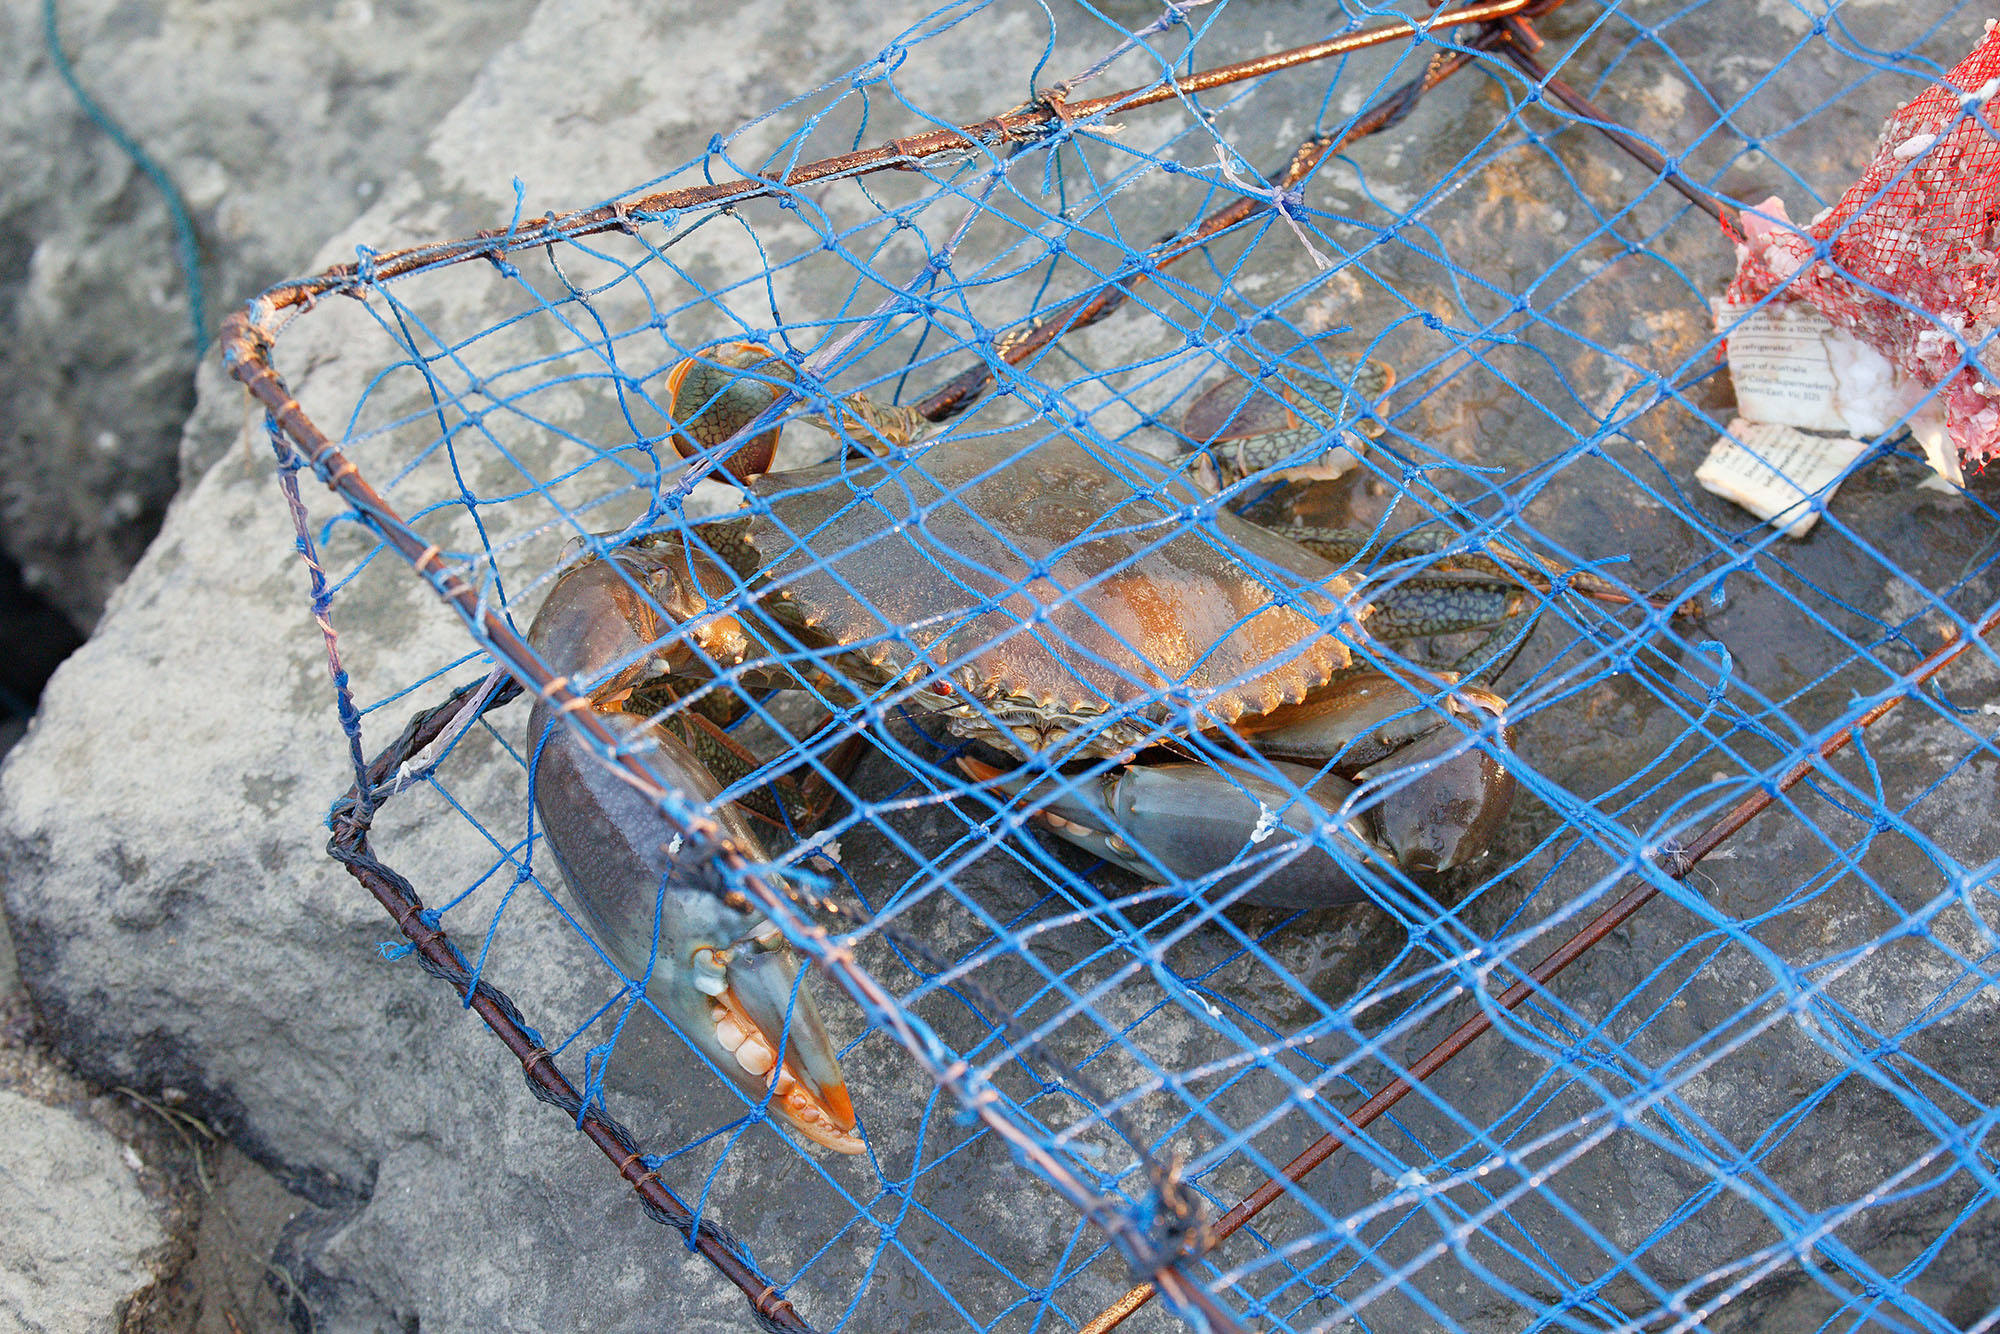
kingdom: Animalia
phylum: Arthropoda
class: Malacostraca
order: Decapoda
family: Portunidae
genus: Scylla
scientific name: Scylla serrata
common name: Giant mud crab
